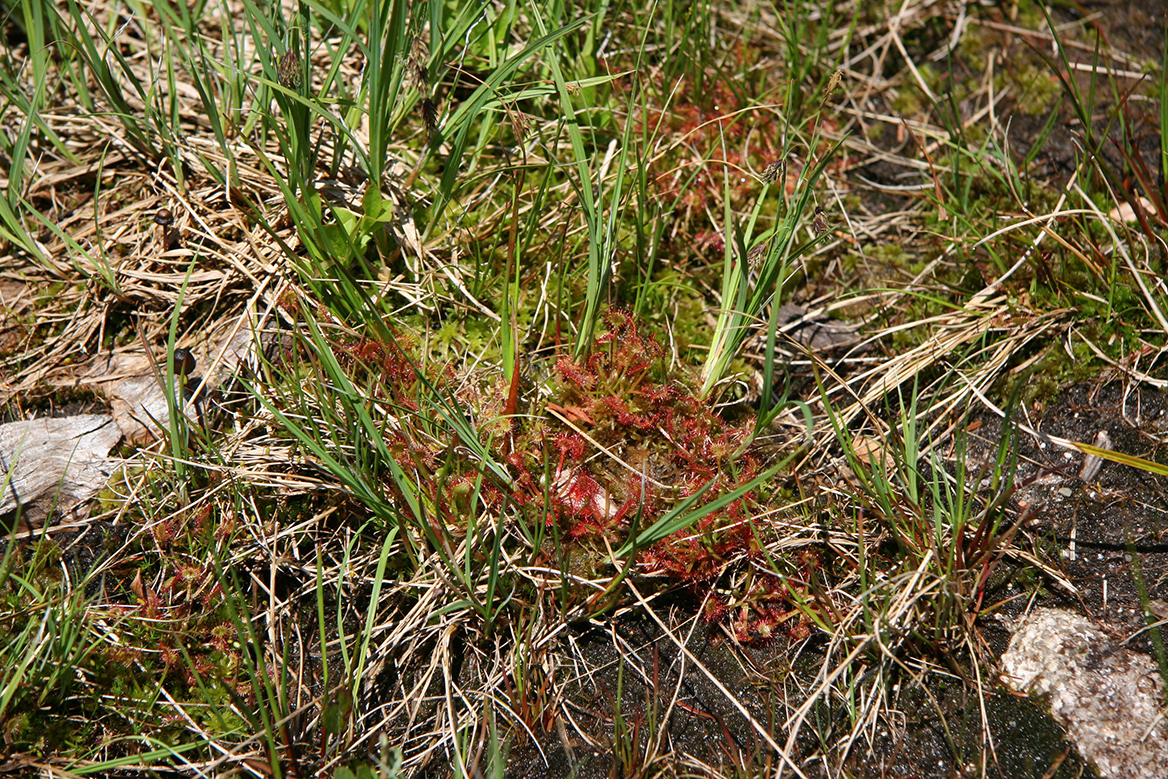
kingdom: Plantae
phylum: Tracheophyta
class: Magnoliopsida
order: Caryophyllales
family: Droseraceae
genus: Drosera
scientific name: Drosera rotundifolia
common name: Round-leaved sundew
